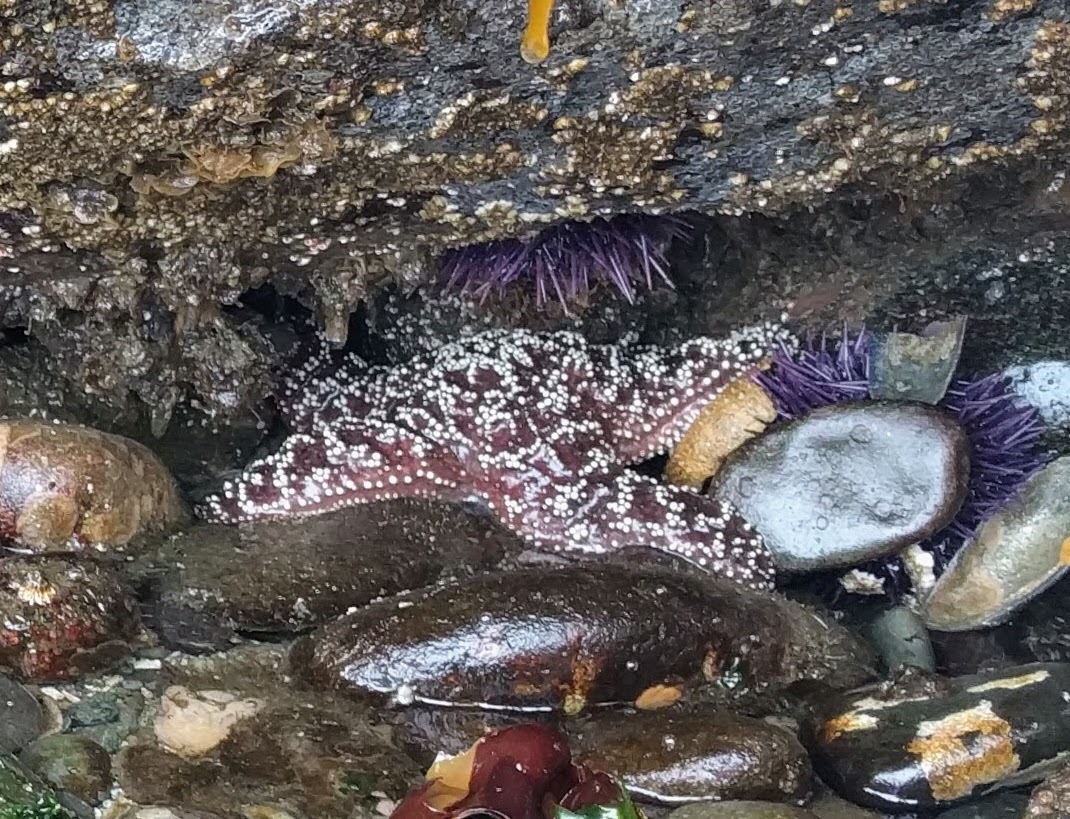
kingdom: Animalia
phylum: Echinodermata
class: Asteroidea
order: Forcipulatida
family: Asteriidae
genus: Pisaster
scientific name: Pisaster ochraceus
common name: Ochre stars
